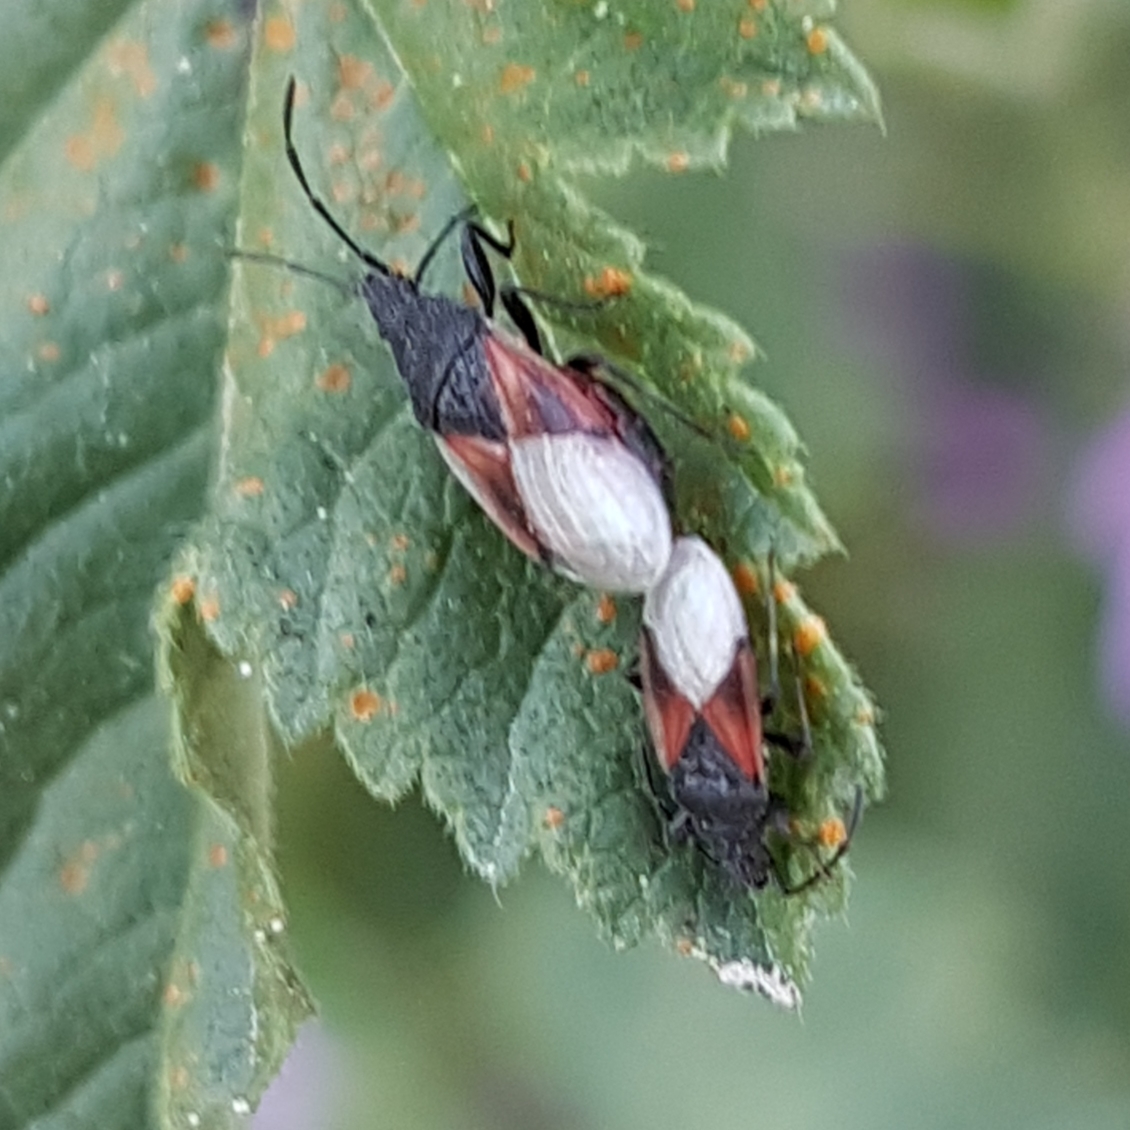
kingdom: Animalia
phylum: Arthropoda
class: Insecta
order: Hemiptera
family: Oxycarenidae
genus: Oxycarenus
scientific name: Oxycarenus lavaterae
